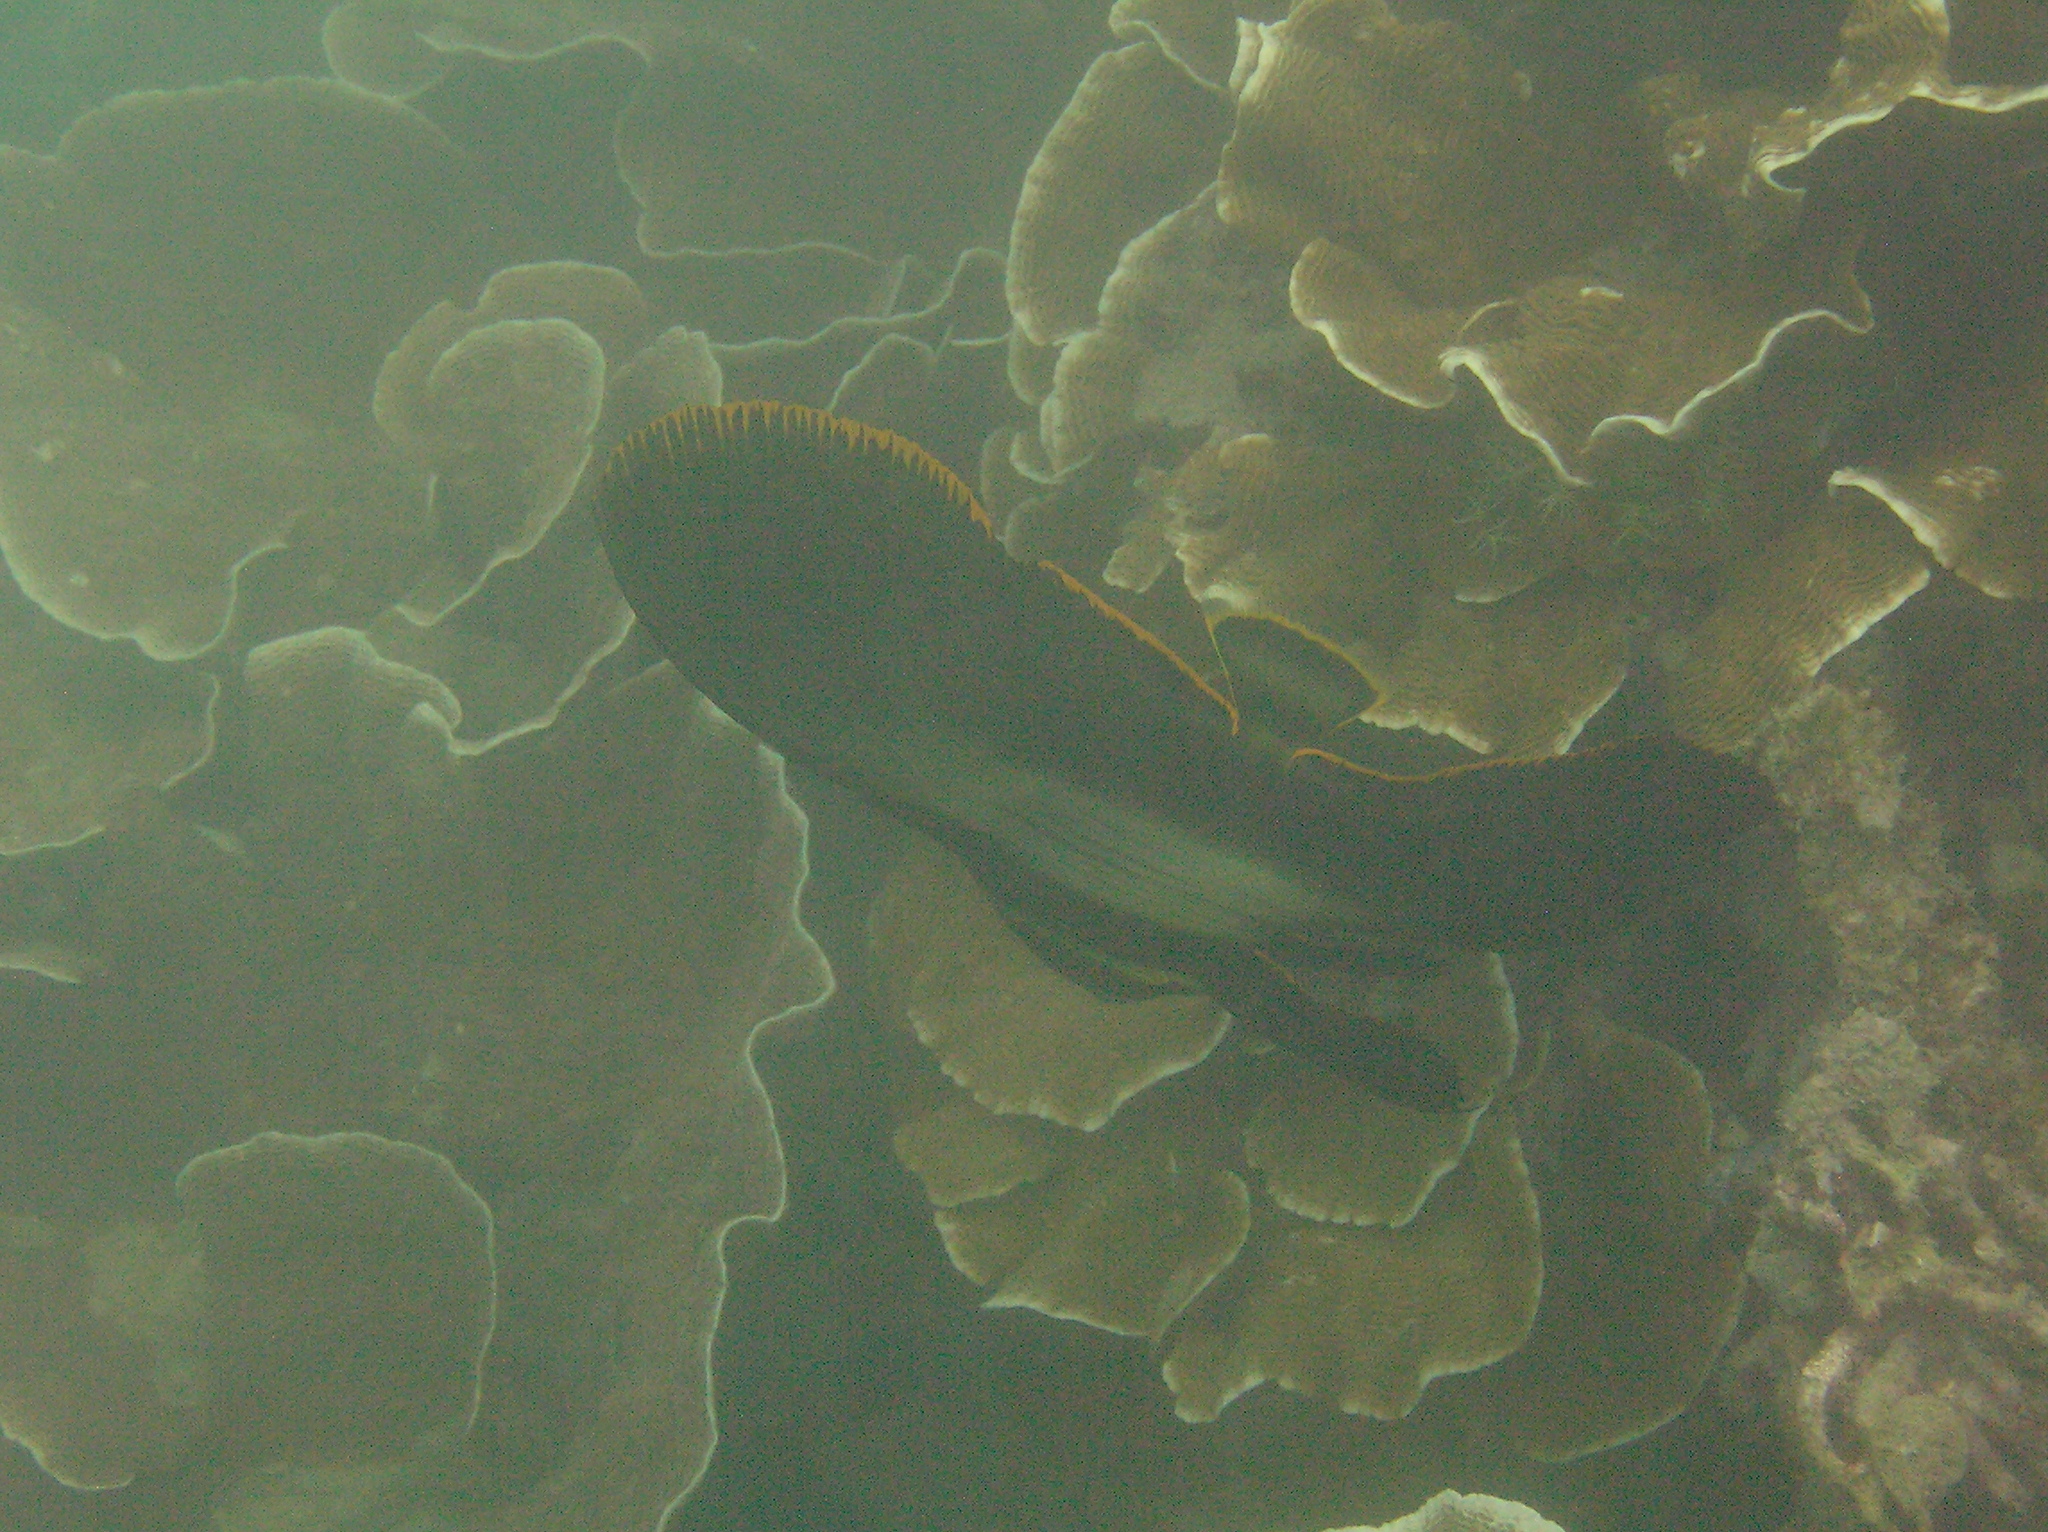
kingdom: Animalia
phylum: Chordata
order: Perciformes
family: Ephippidae
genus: Platax
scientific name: Platax pinnatus
